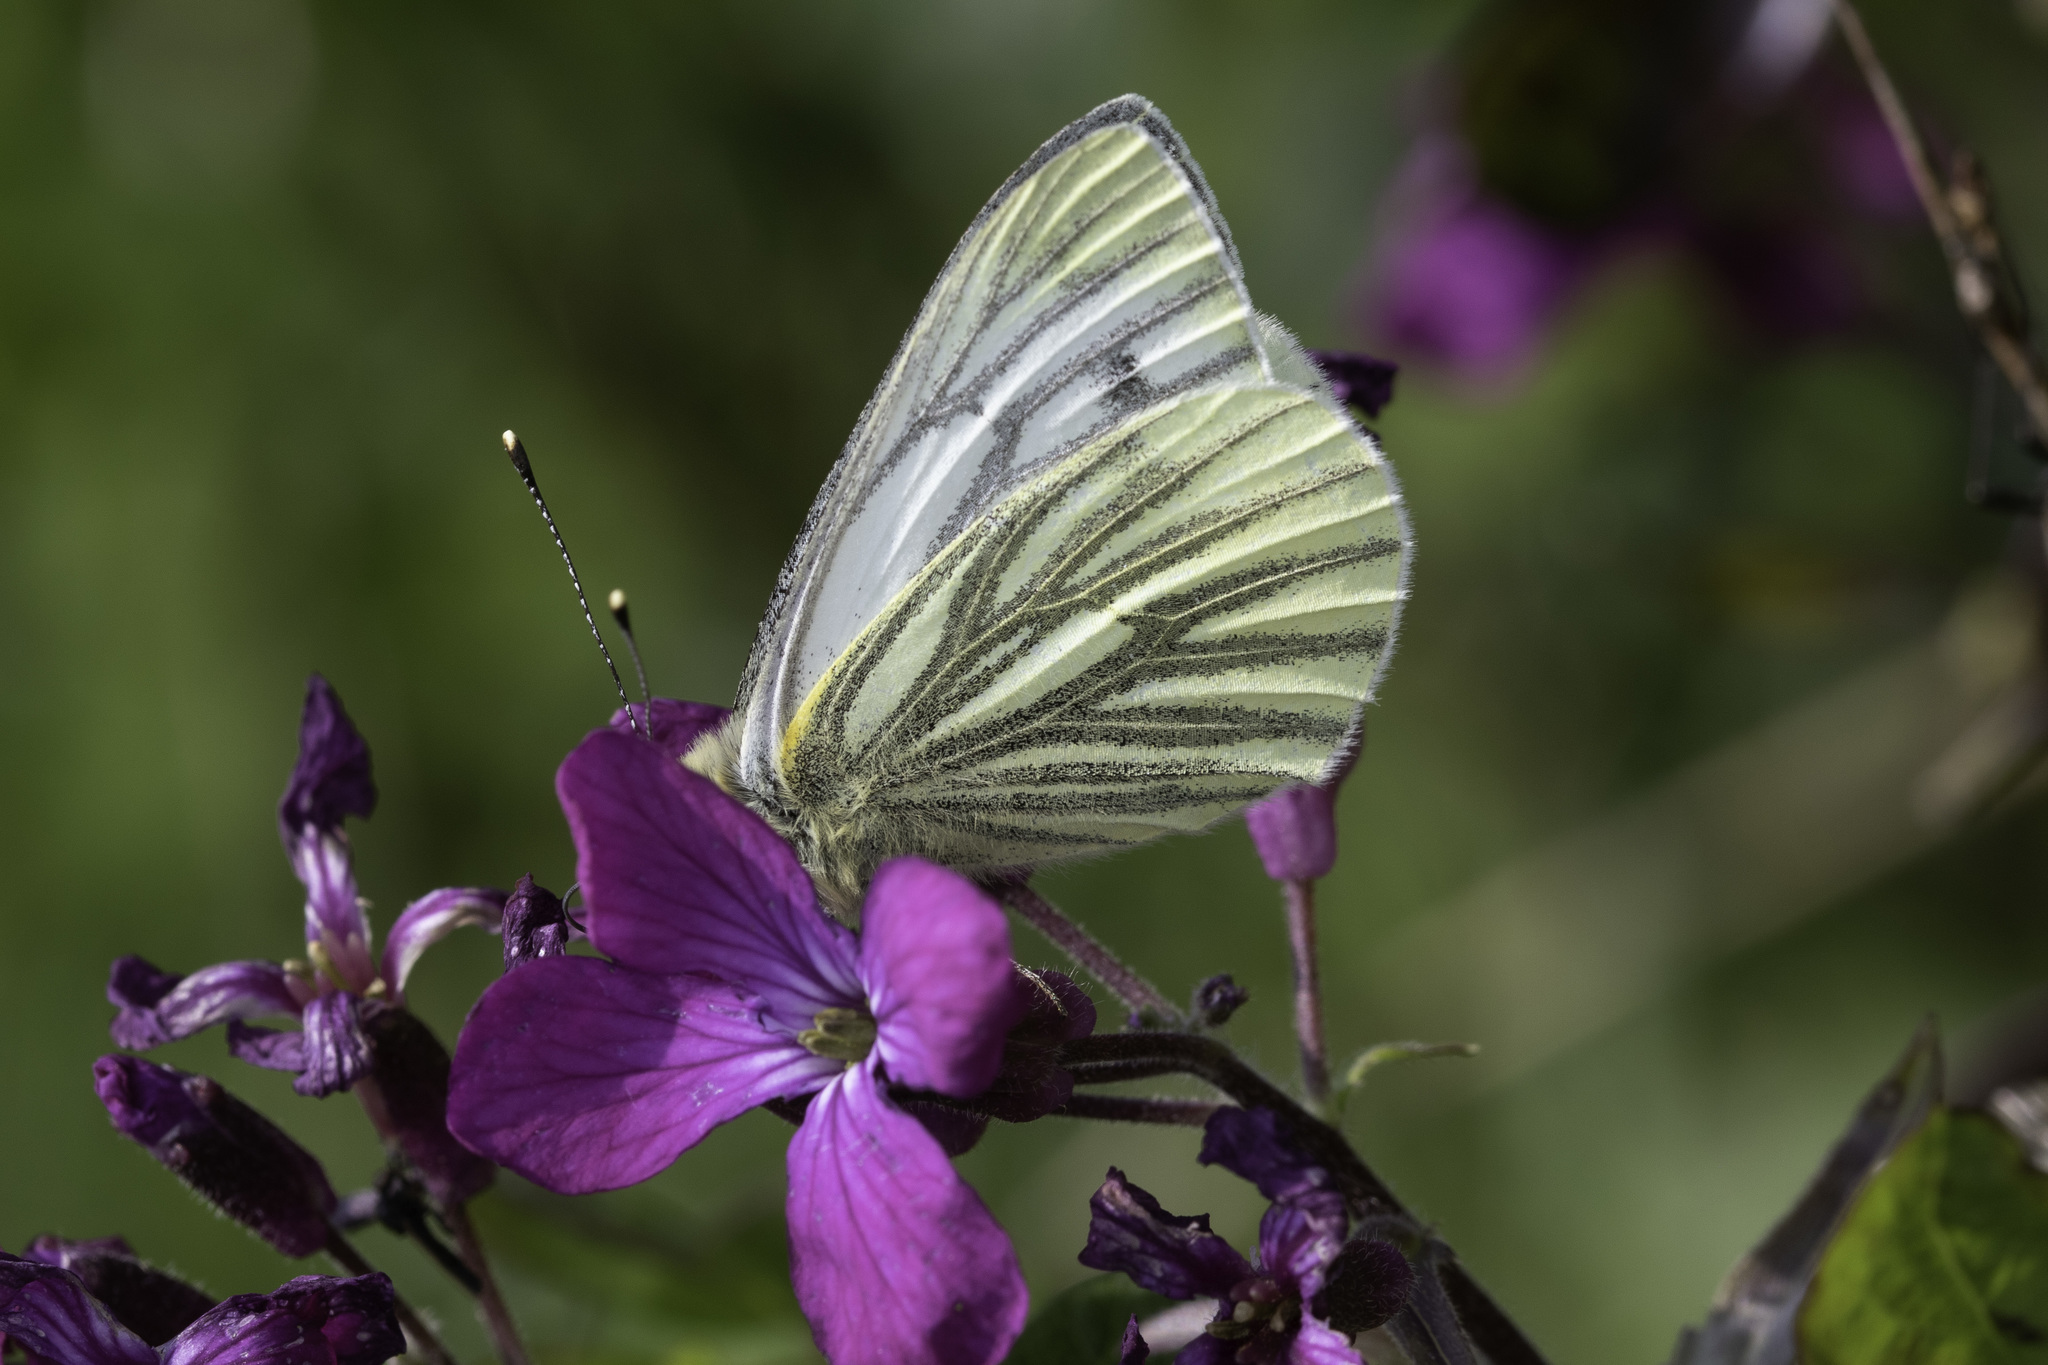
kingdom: Animalia
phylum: Arthropoda
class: Insecta
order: Lepidoptera
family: Pieridae
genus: Pieris
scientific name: Pieris napi
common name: Green-veined white
